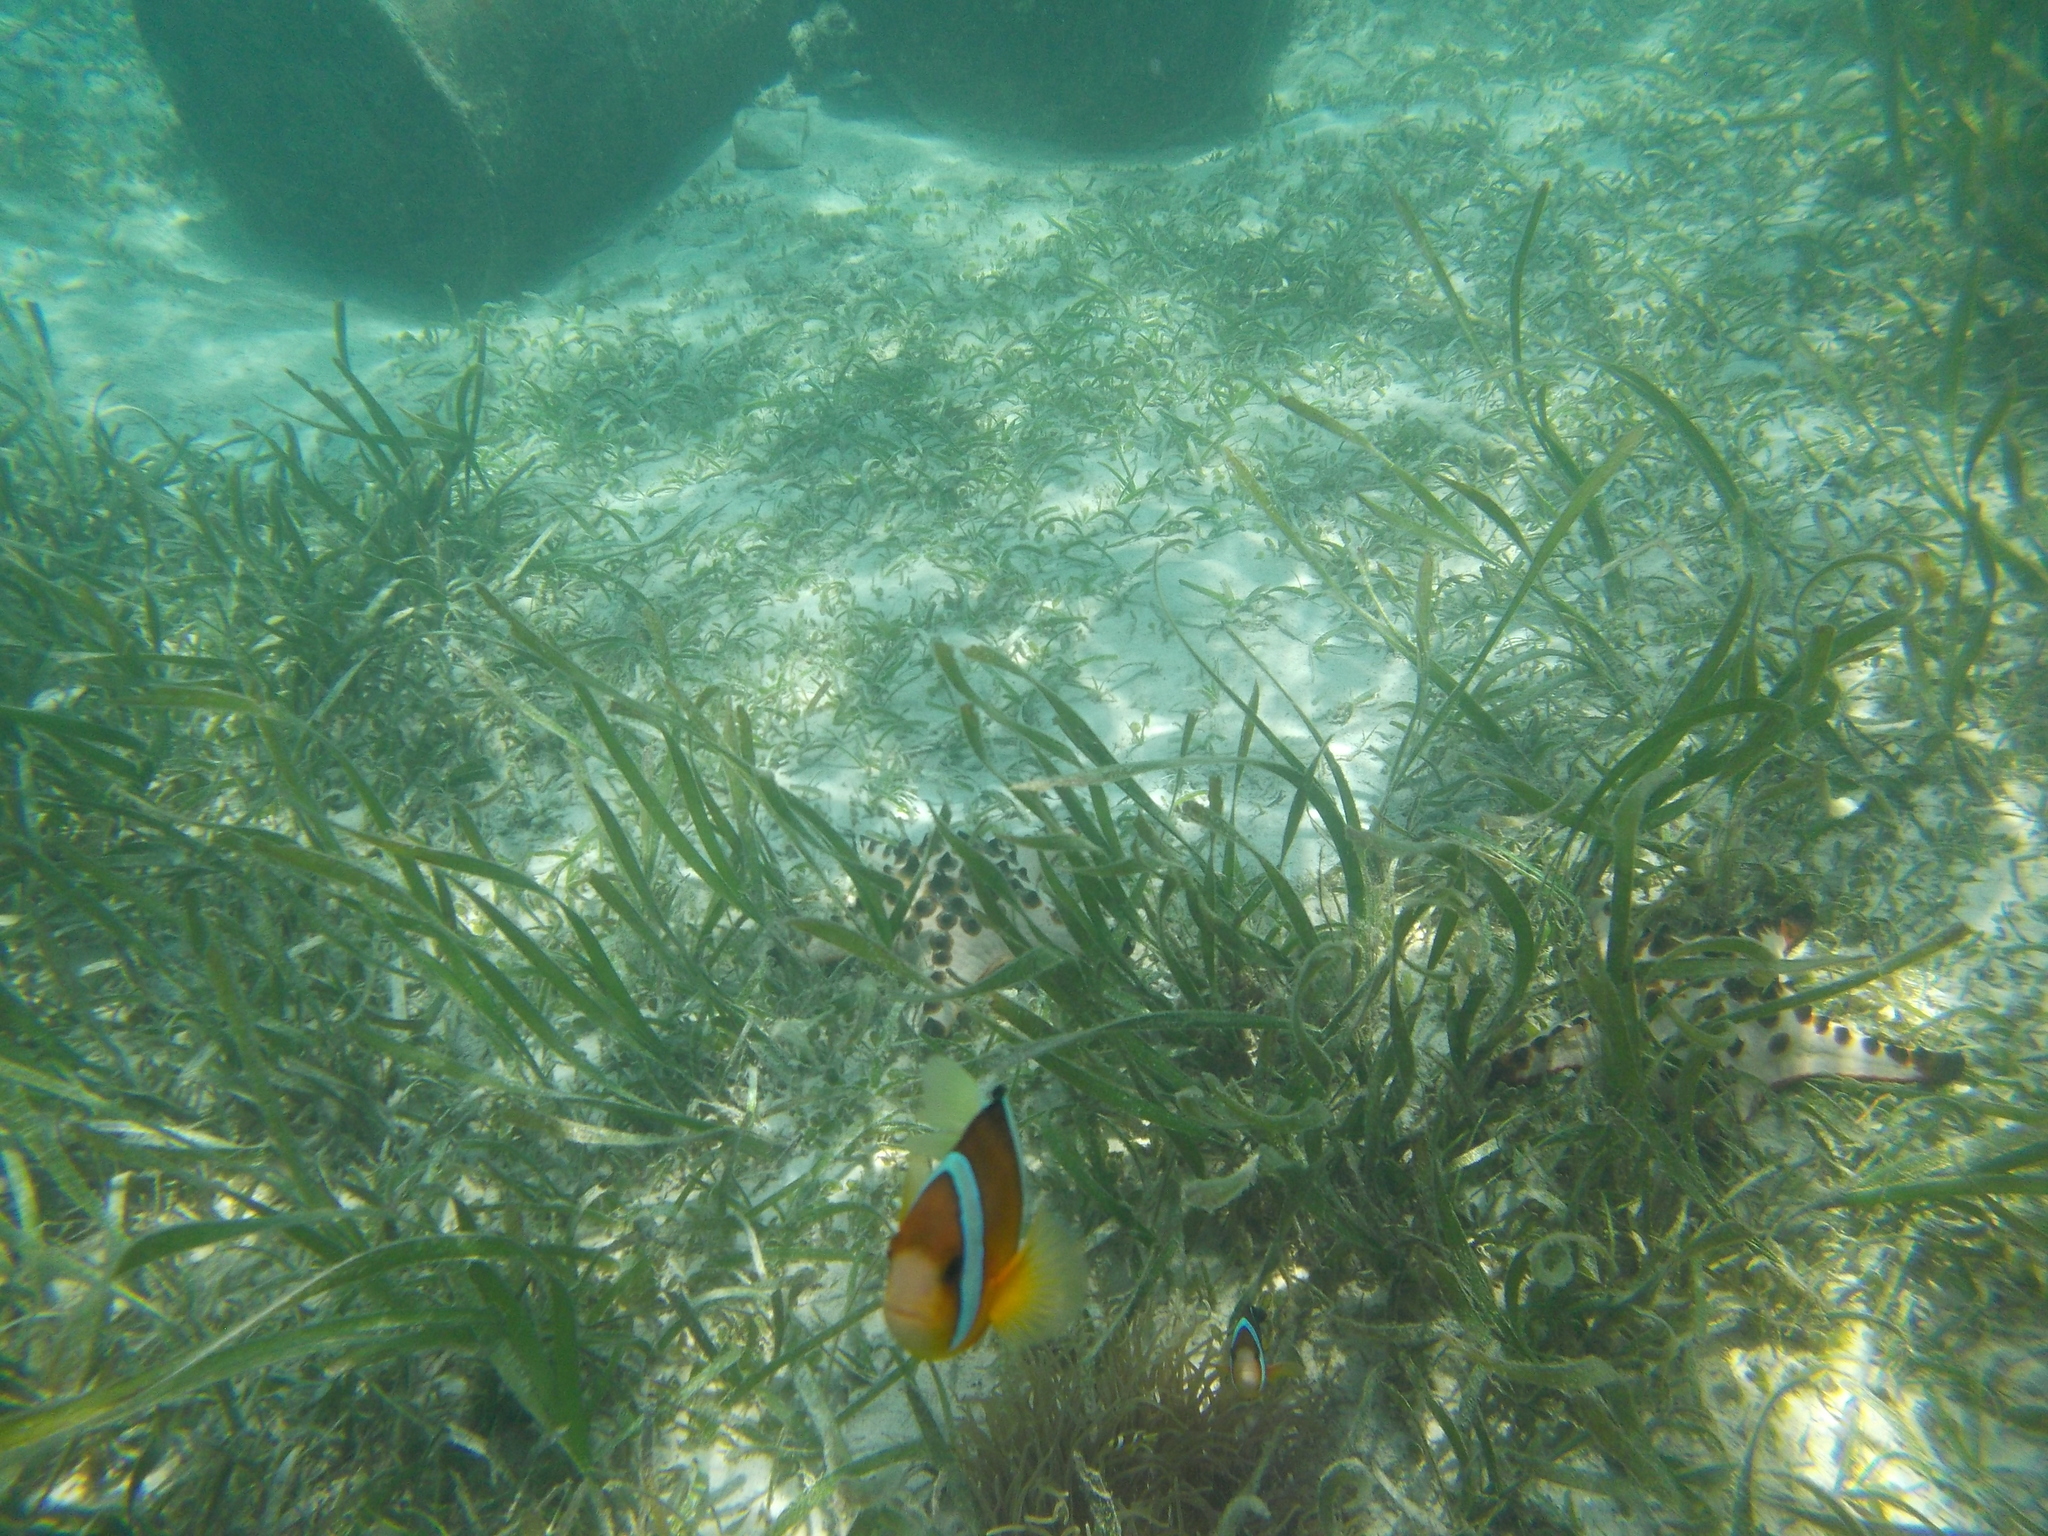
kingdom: Animalia
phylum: Chordata
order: Perciformes
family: Pomacentridae
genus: Amphiprion
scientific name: Amphiprion clarkii
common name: Clark's anemonefish
